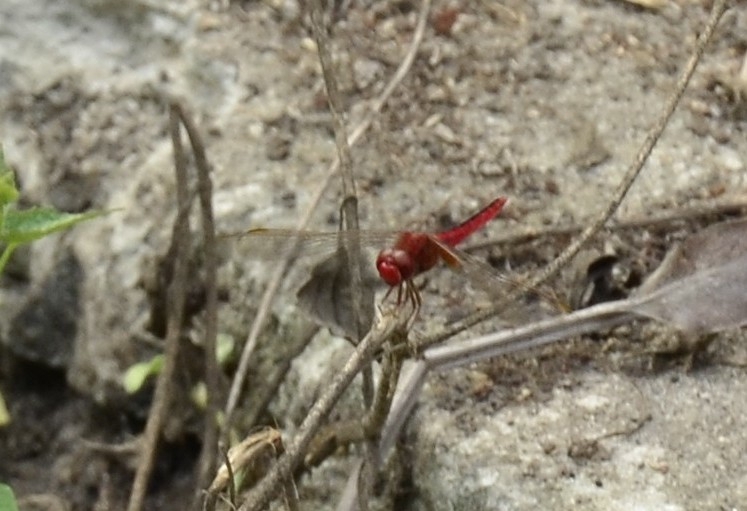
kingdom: Animalia
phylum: Arthropoda
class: Insecta
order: Odonata
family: Libellulidae
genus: Crocothemis
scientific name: Crocothemis servilia
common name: Scarlet skimmer
